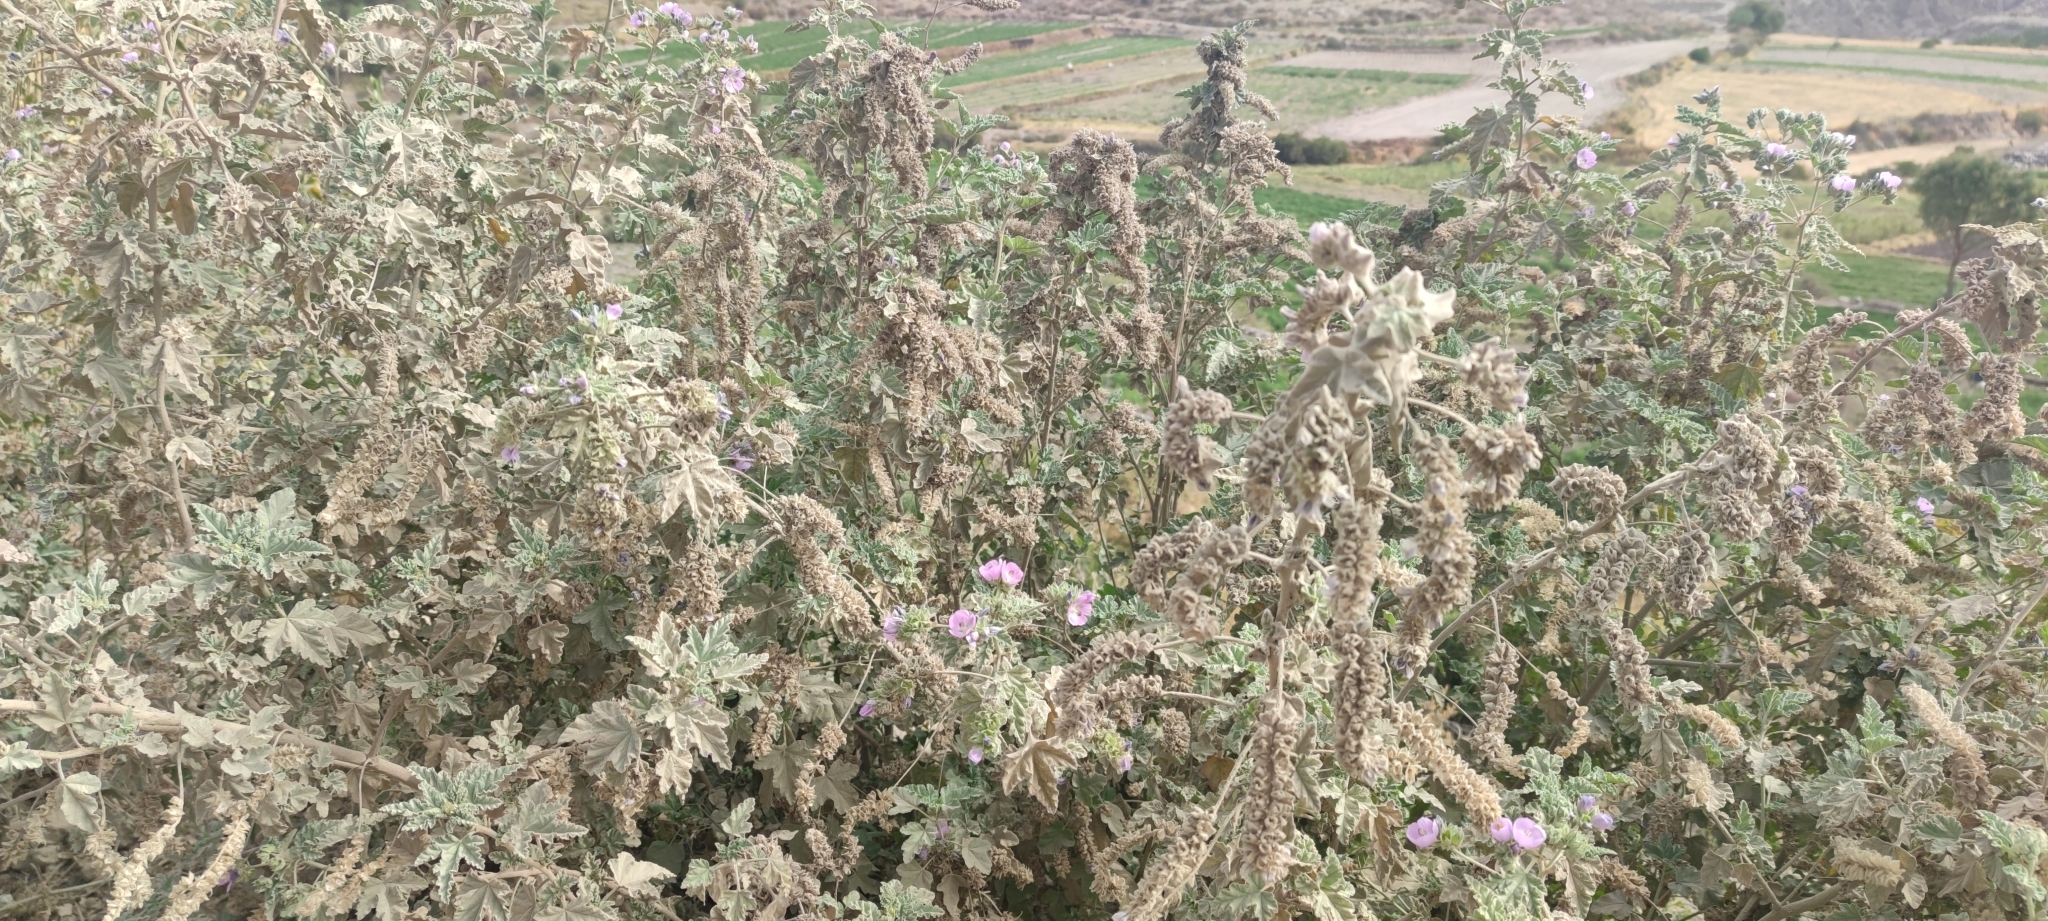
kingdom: Plantae
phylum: Tracheophyta
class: Magnoliopsida
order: Malvales
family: Malvaceae
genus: Tarasa
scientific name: Tarasa capitata
